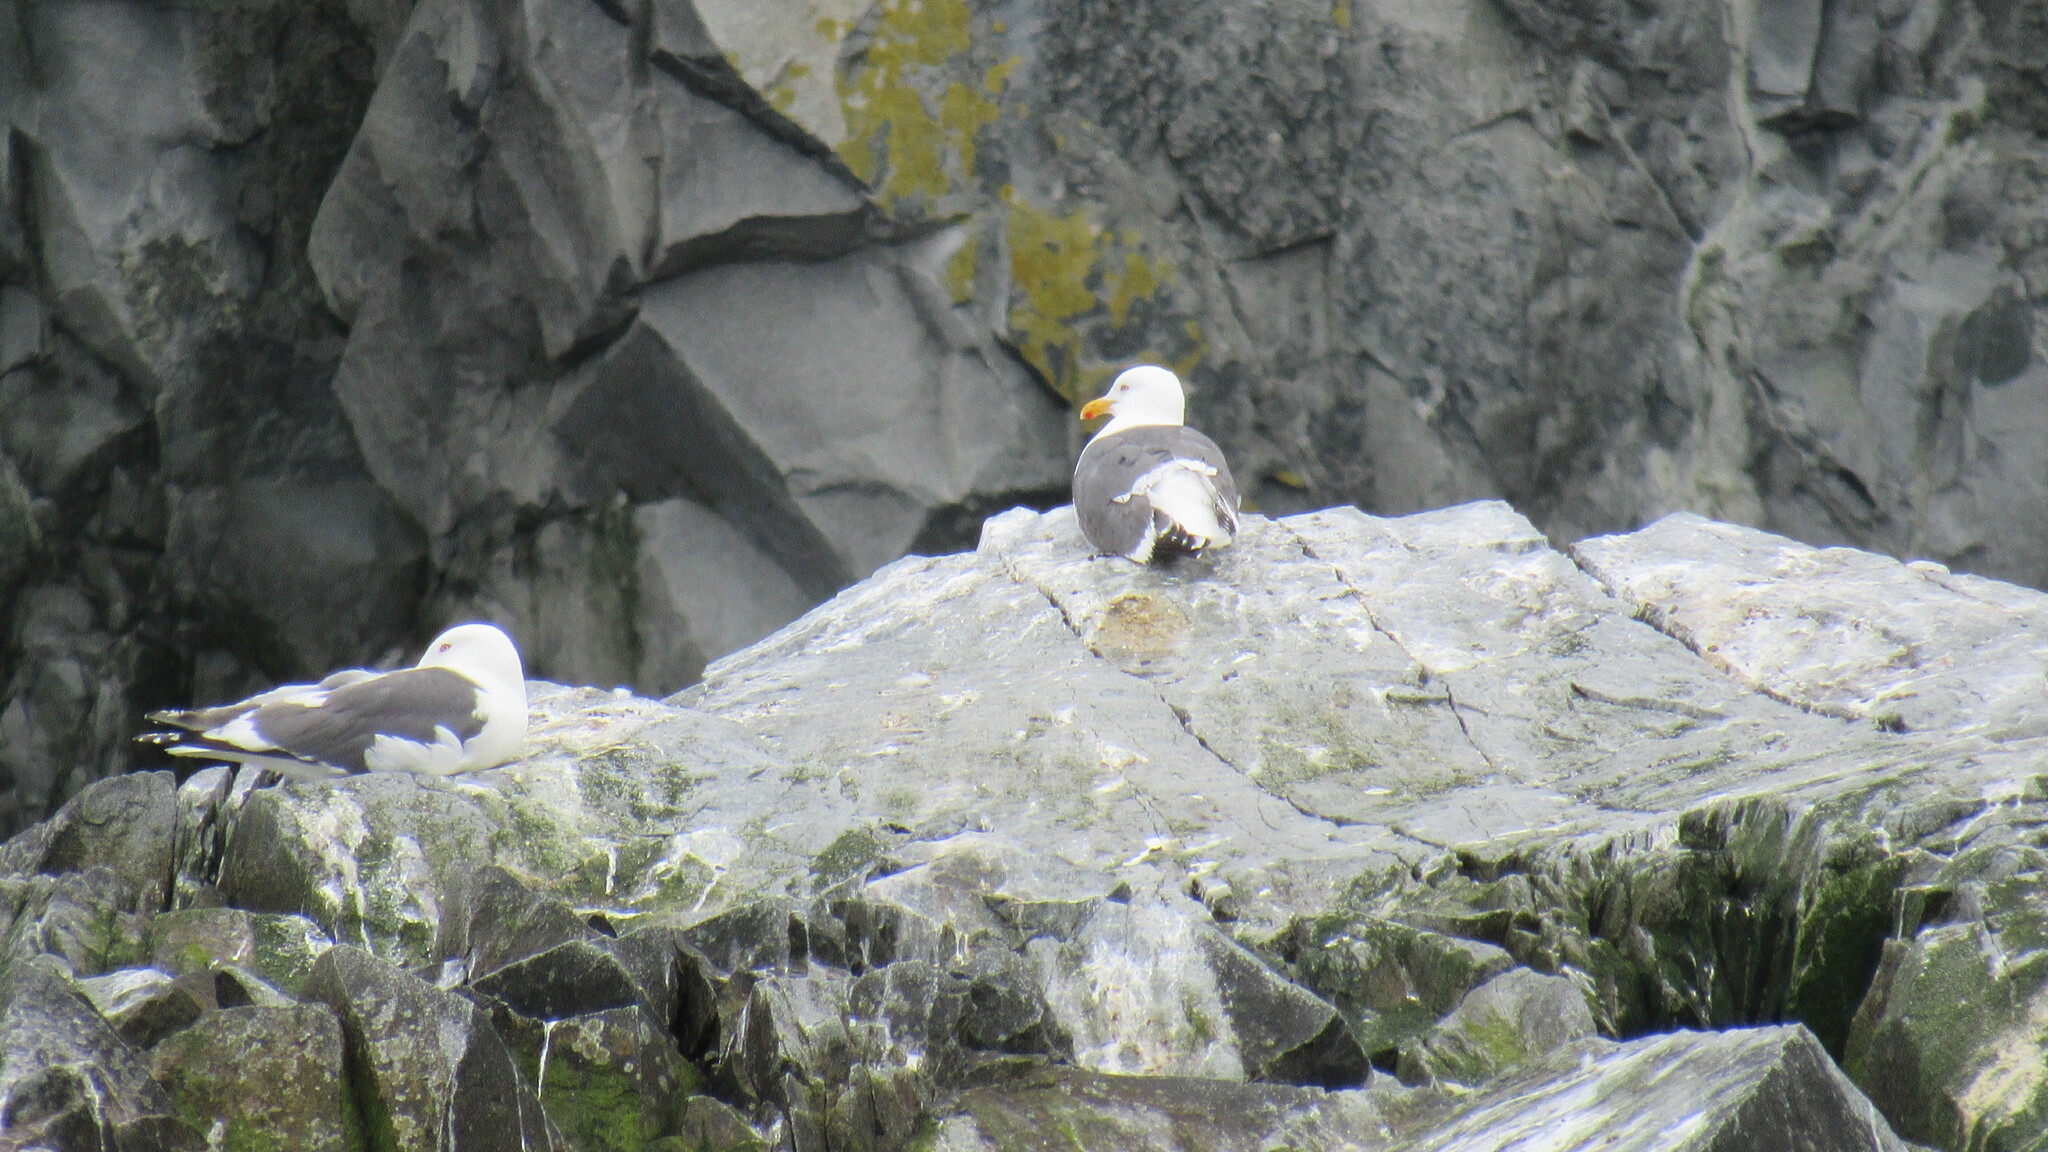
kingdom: Animalia
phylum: Chordata
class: Aves
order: Charadriiformes
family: Laridae
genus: Larus
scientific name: Larus schistisagus
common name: Slaty-backed gull
